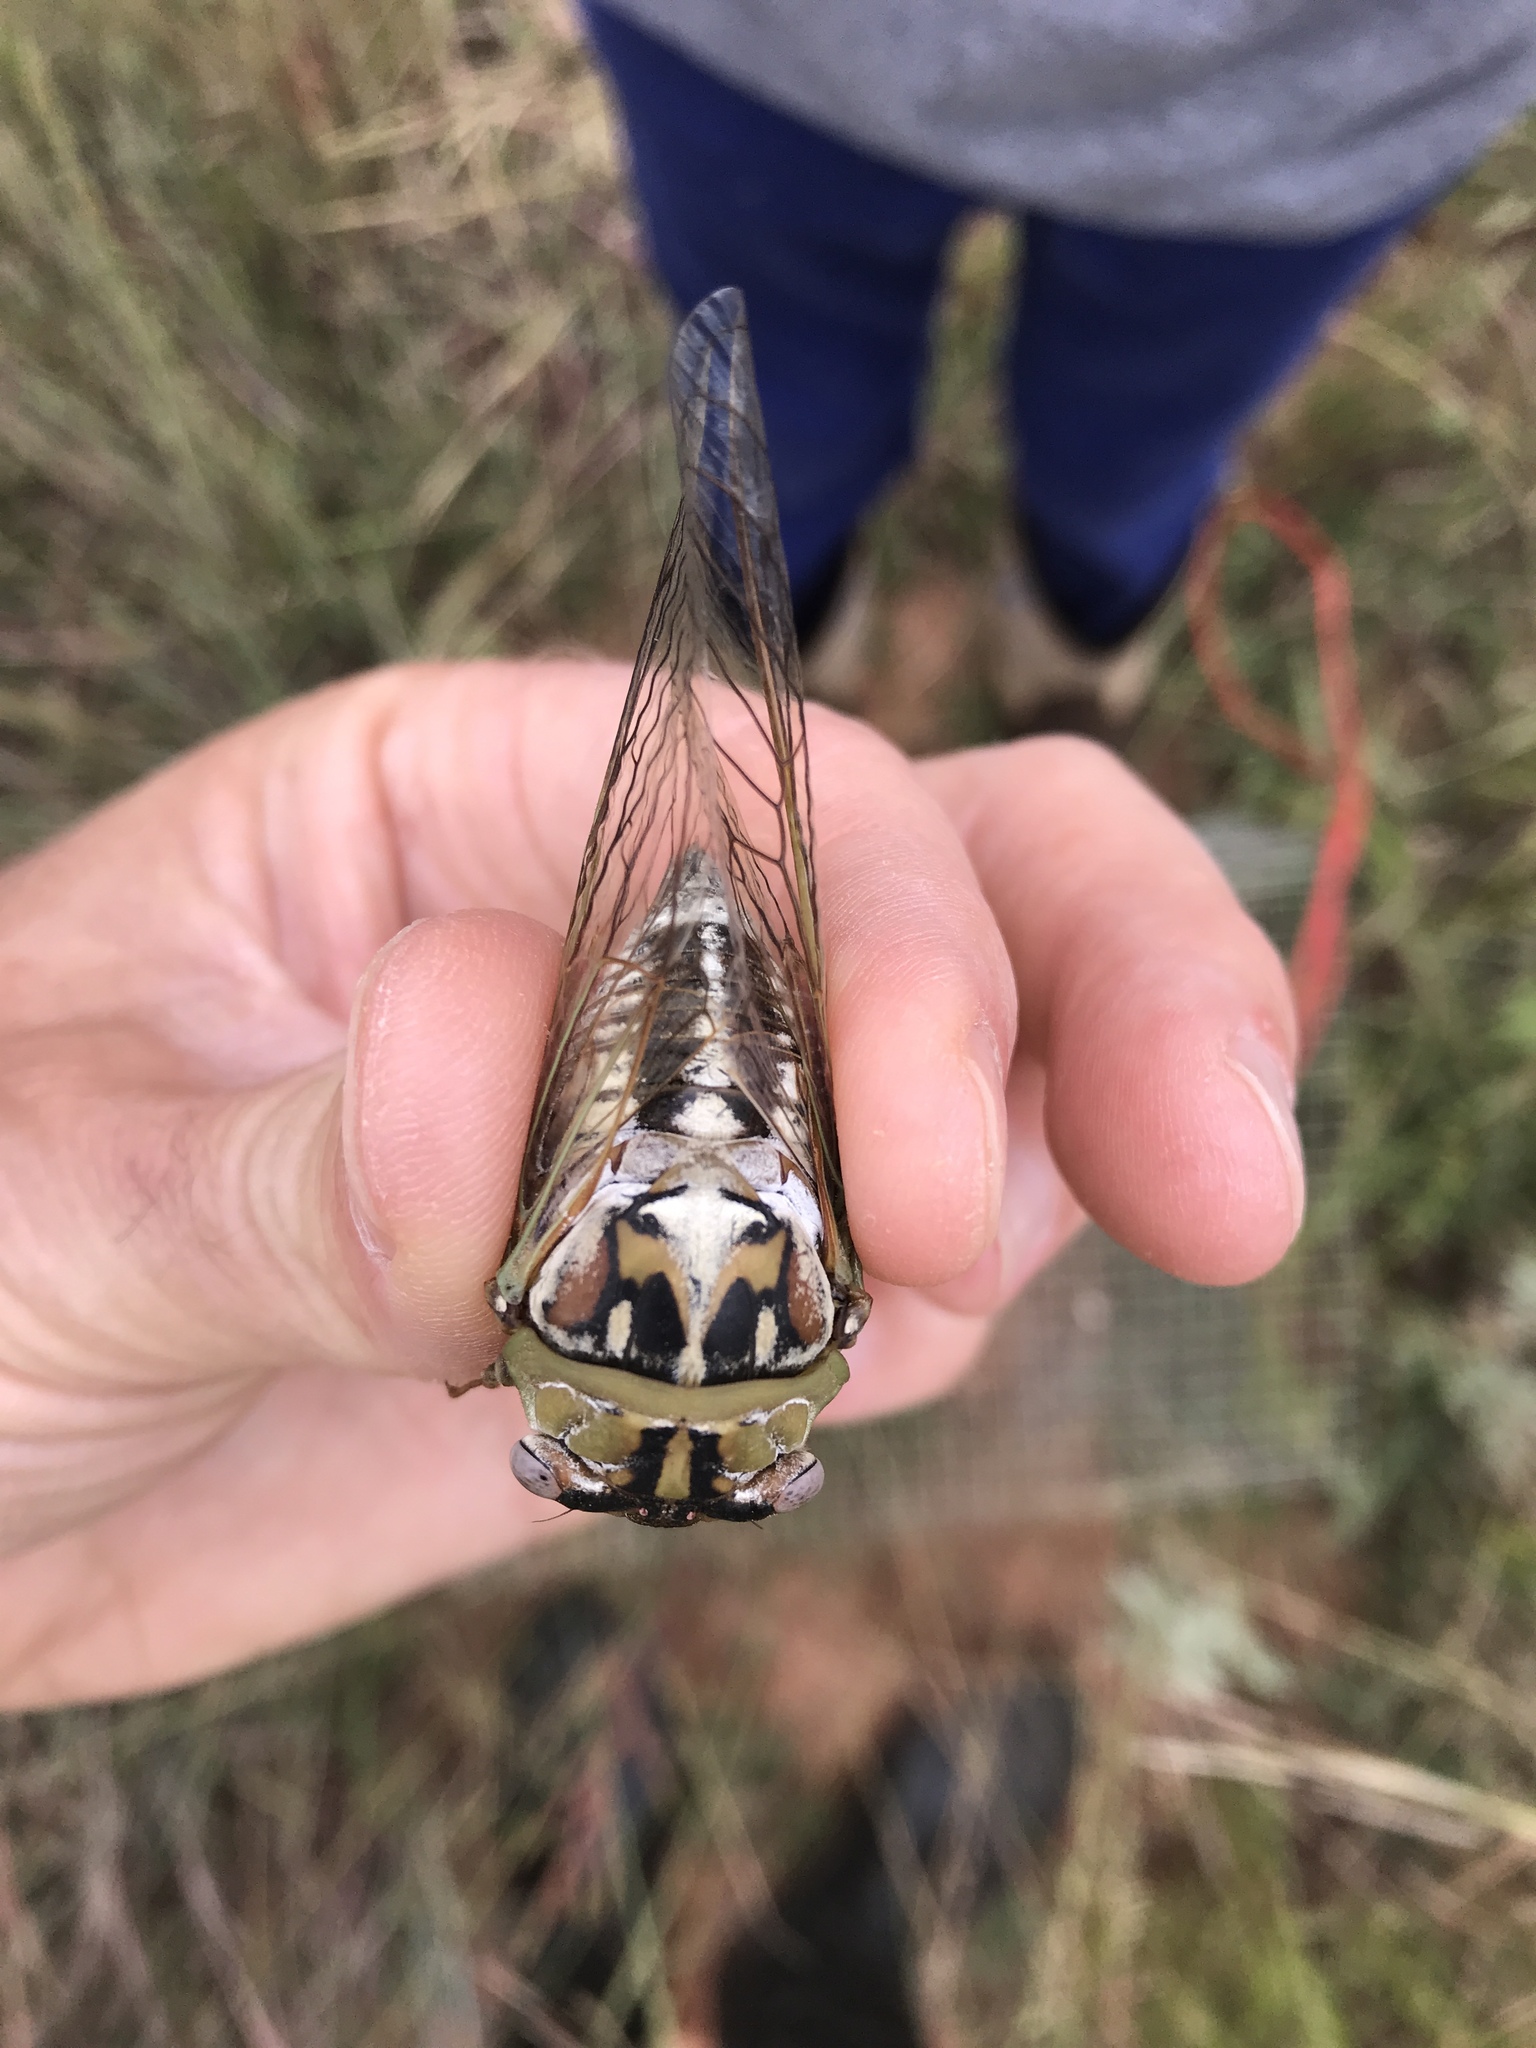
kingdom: Animalia
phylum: Arthropoda
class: Insecta
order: Hemiptera
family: Cicadidae
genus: Megatibicen
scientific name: Megatibicen dealbatus
